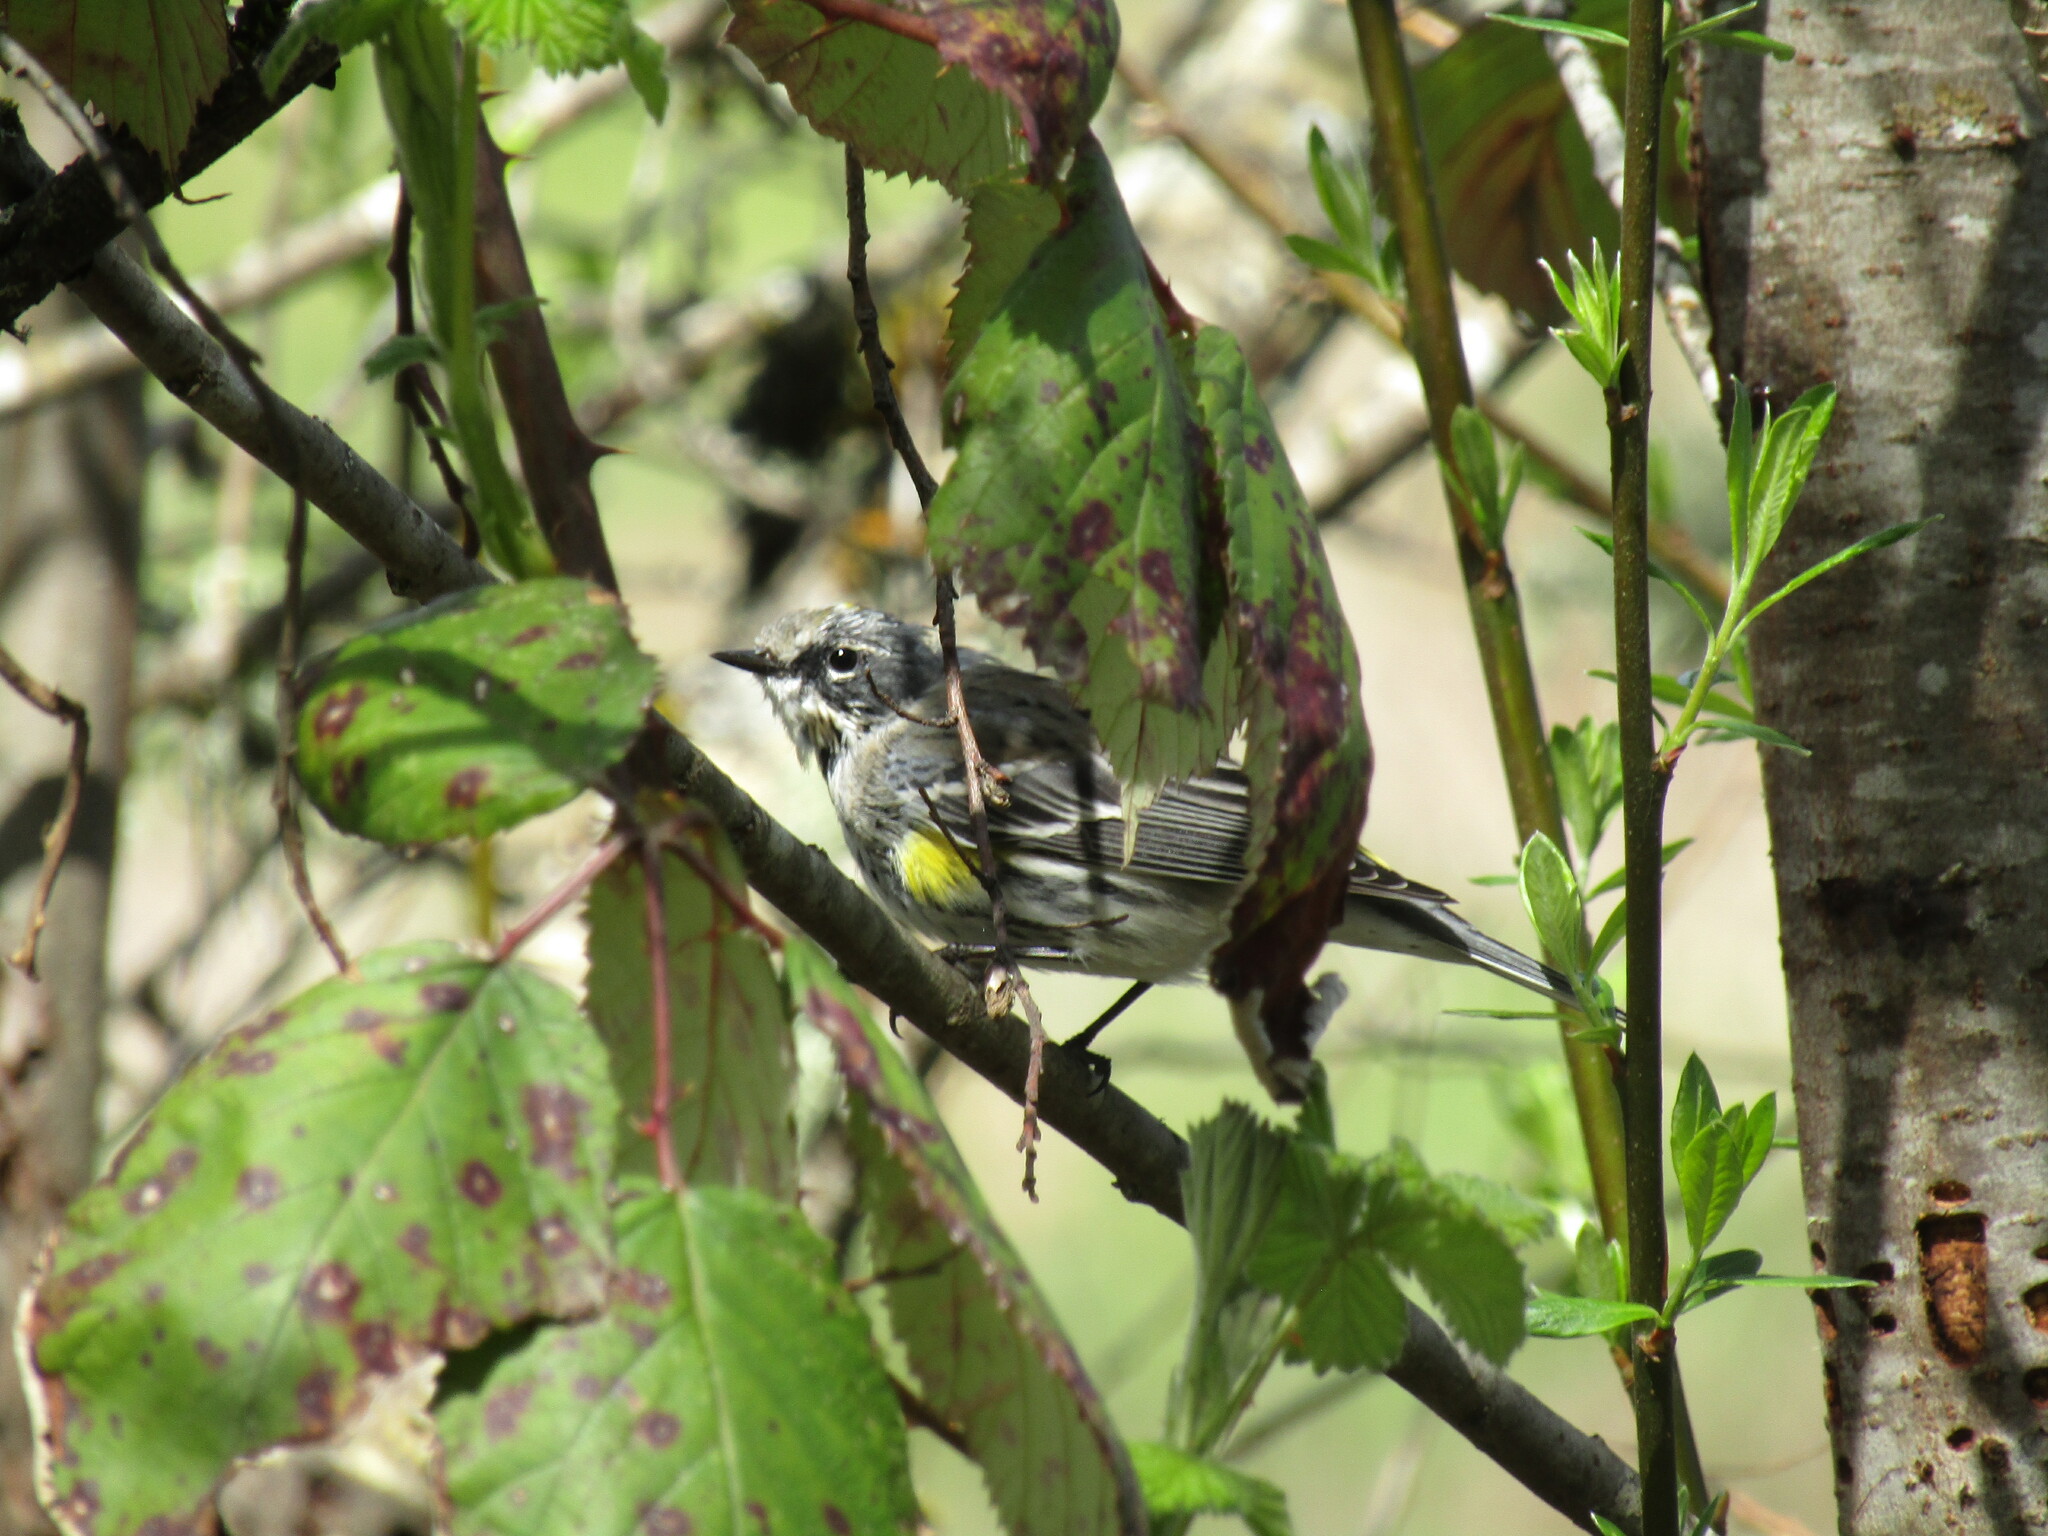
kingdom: Animalia
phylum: Chordata
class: Aves
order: Passeriformes
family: Parulidae
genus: Setophaga
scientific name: Setophaga coronata
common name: Myrtle warbler
